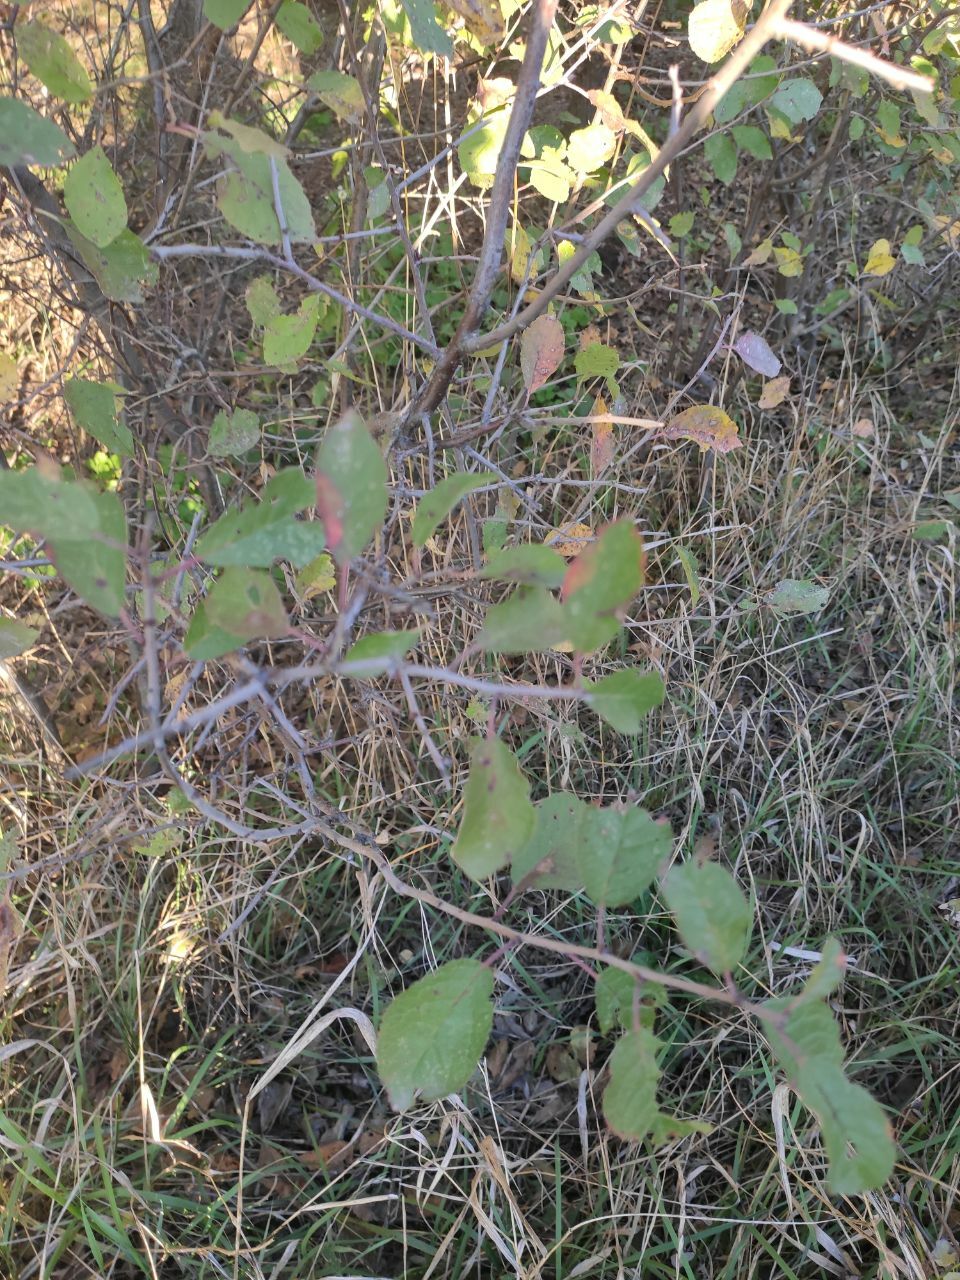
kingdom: Plantae
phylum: Tracheophyta
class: Magnoliopsida
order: Rosales
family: Rosaceae
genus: Prunus
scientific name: Prunus spinosa
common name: Blackthorn
